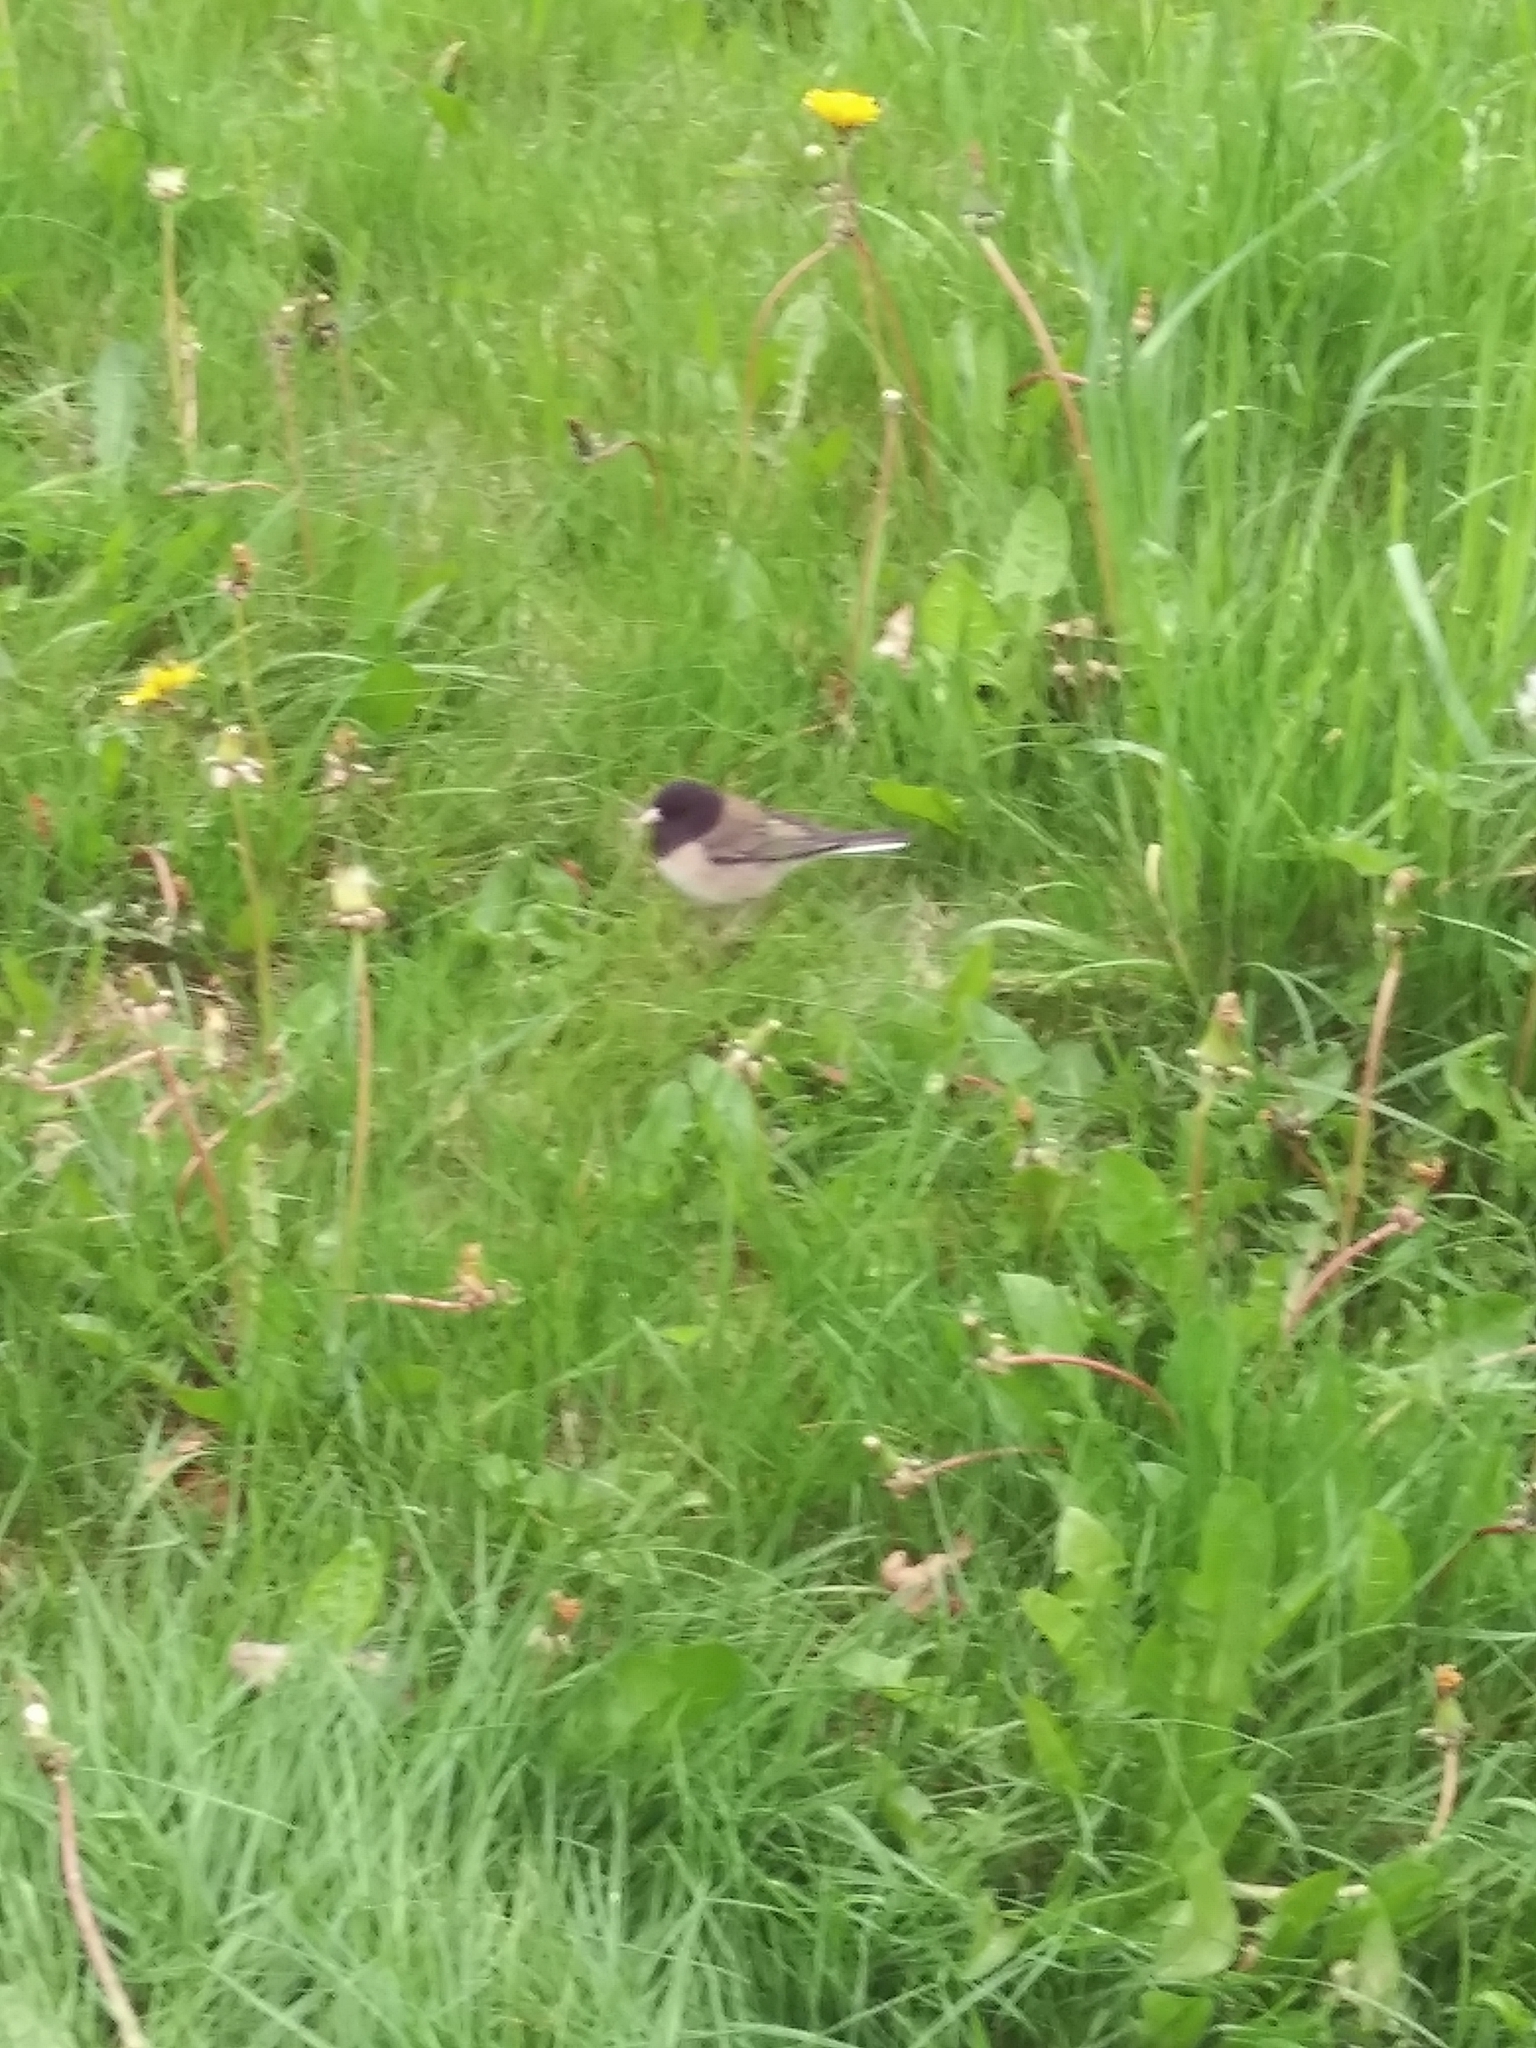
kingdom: Animalia
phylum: Chordata
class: Aves
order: Passeriformes
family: Passerellidae
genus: Junco
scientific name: Junco hyemalis
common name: Dark-eyed junco
